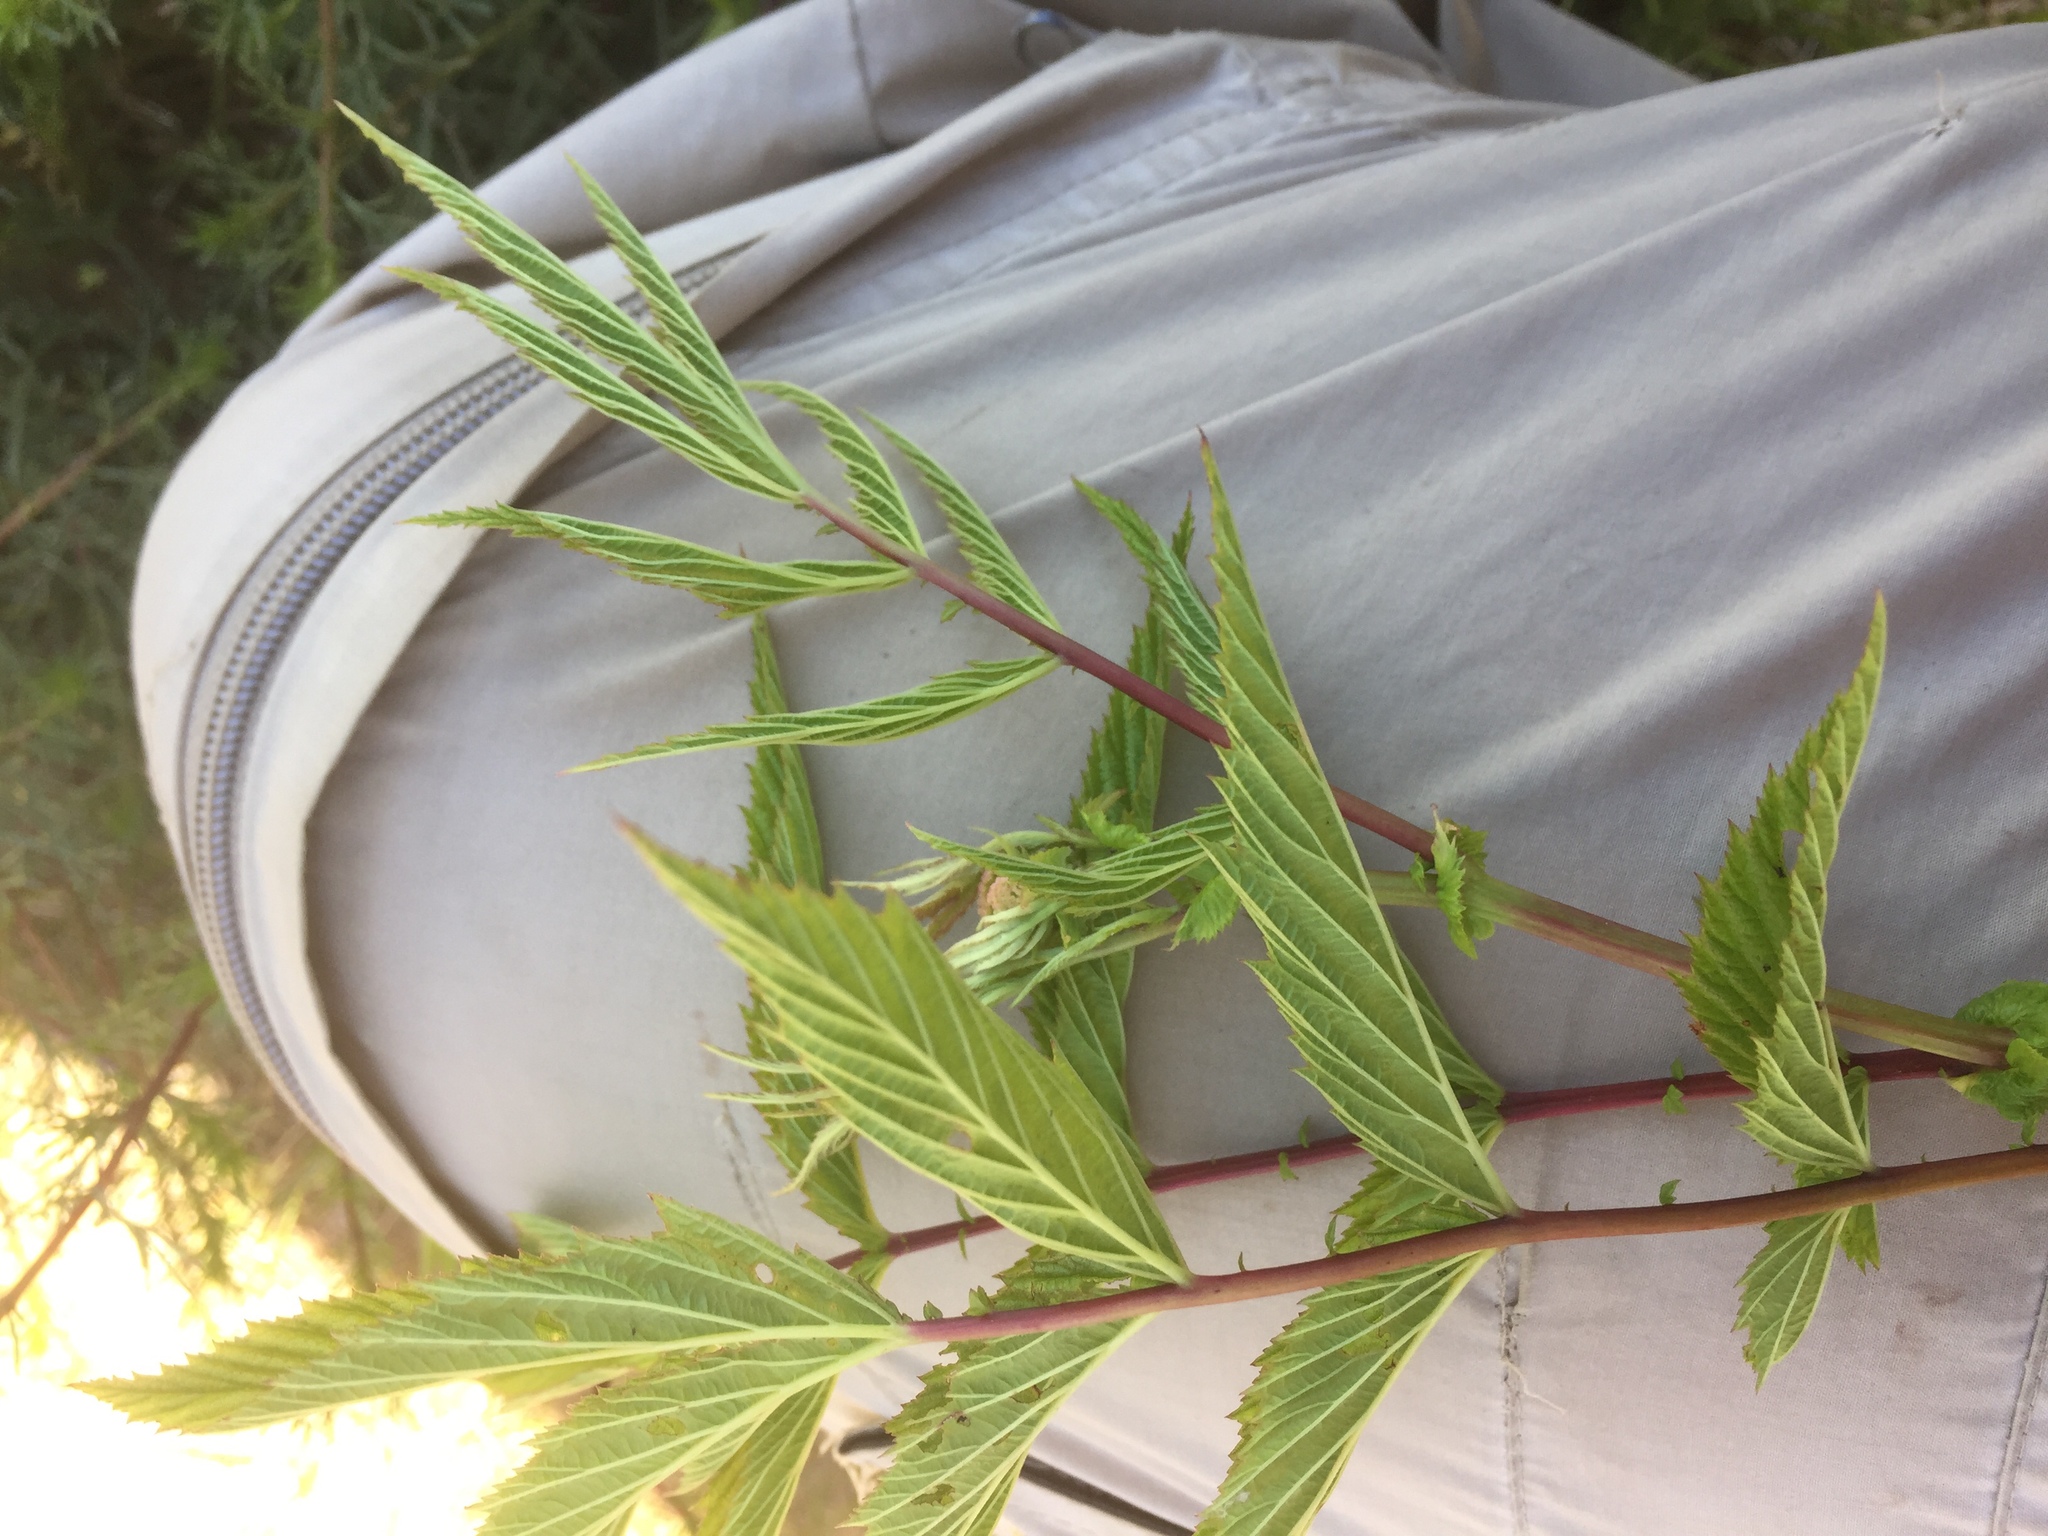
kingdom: Plantae
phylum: Tracheophyta
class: Magnoliopsida
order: Rosales
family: Rosaceae
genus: Filipendula
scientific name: Filipendula ulmaria
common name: Meadowsweet
